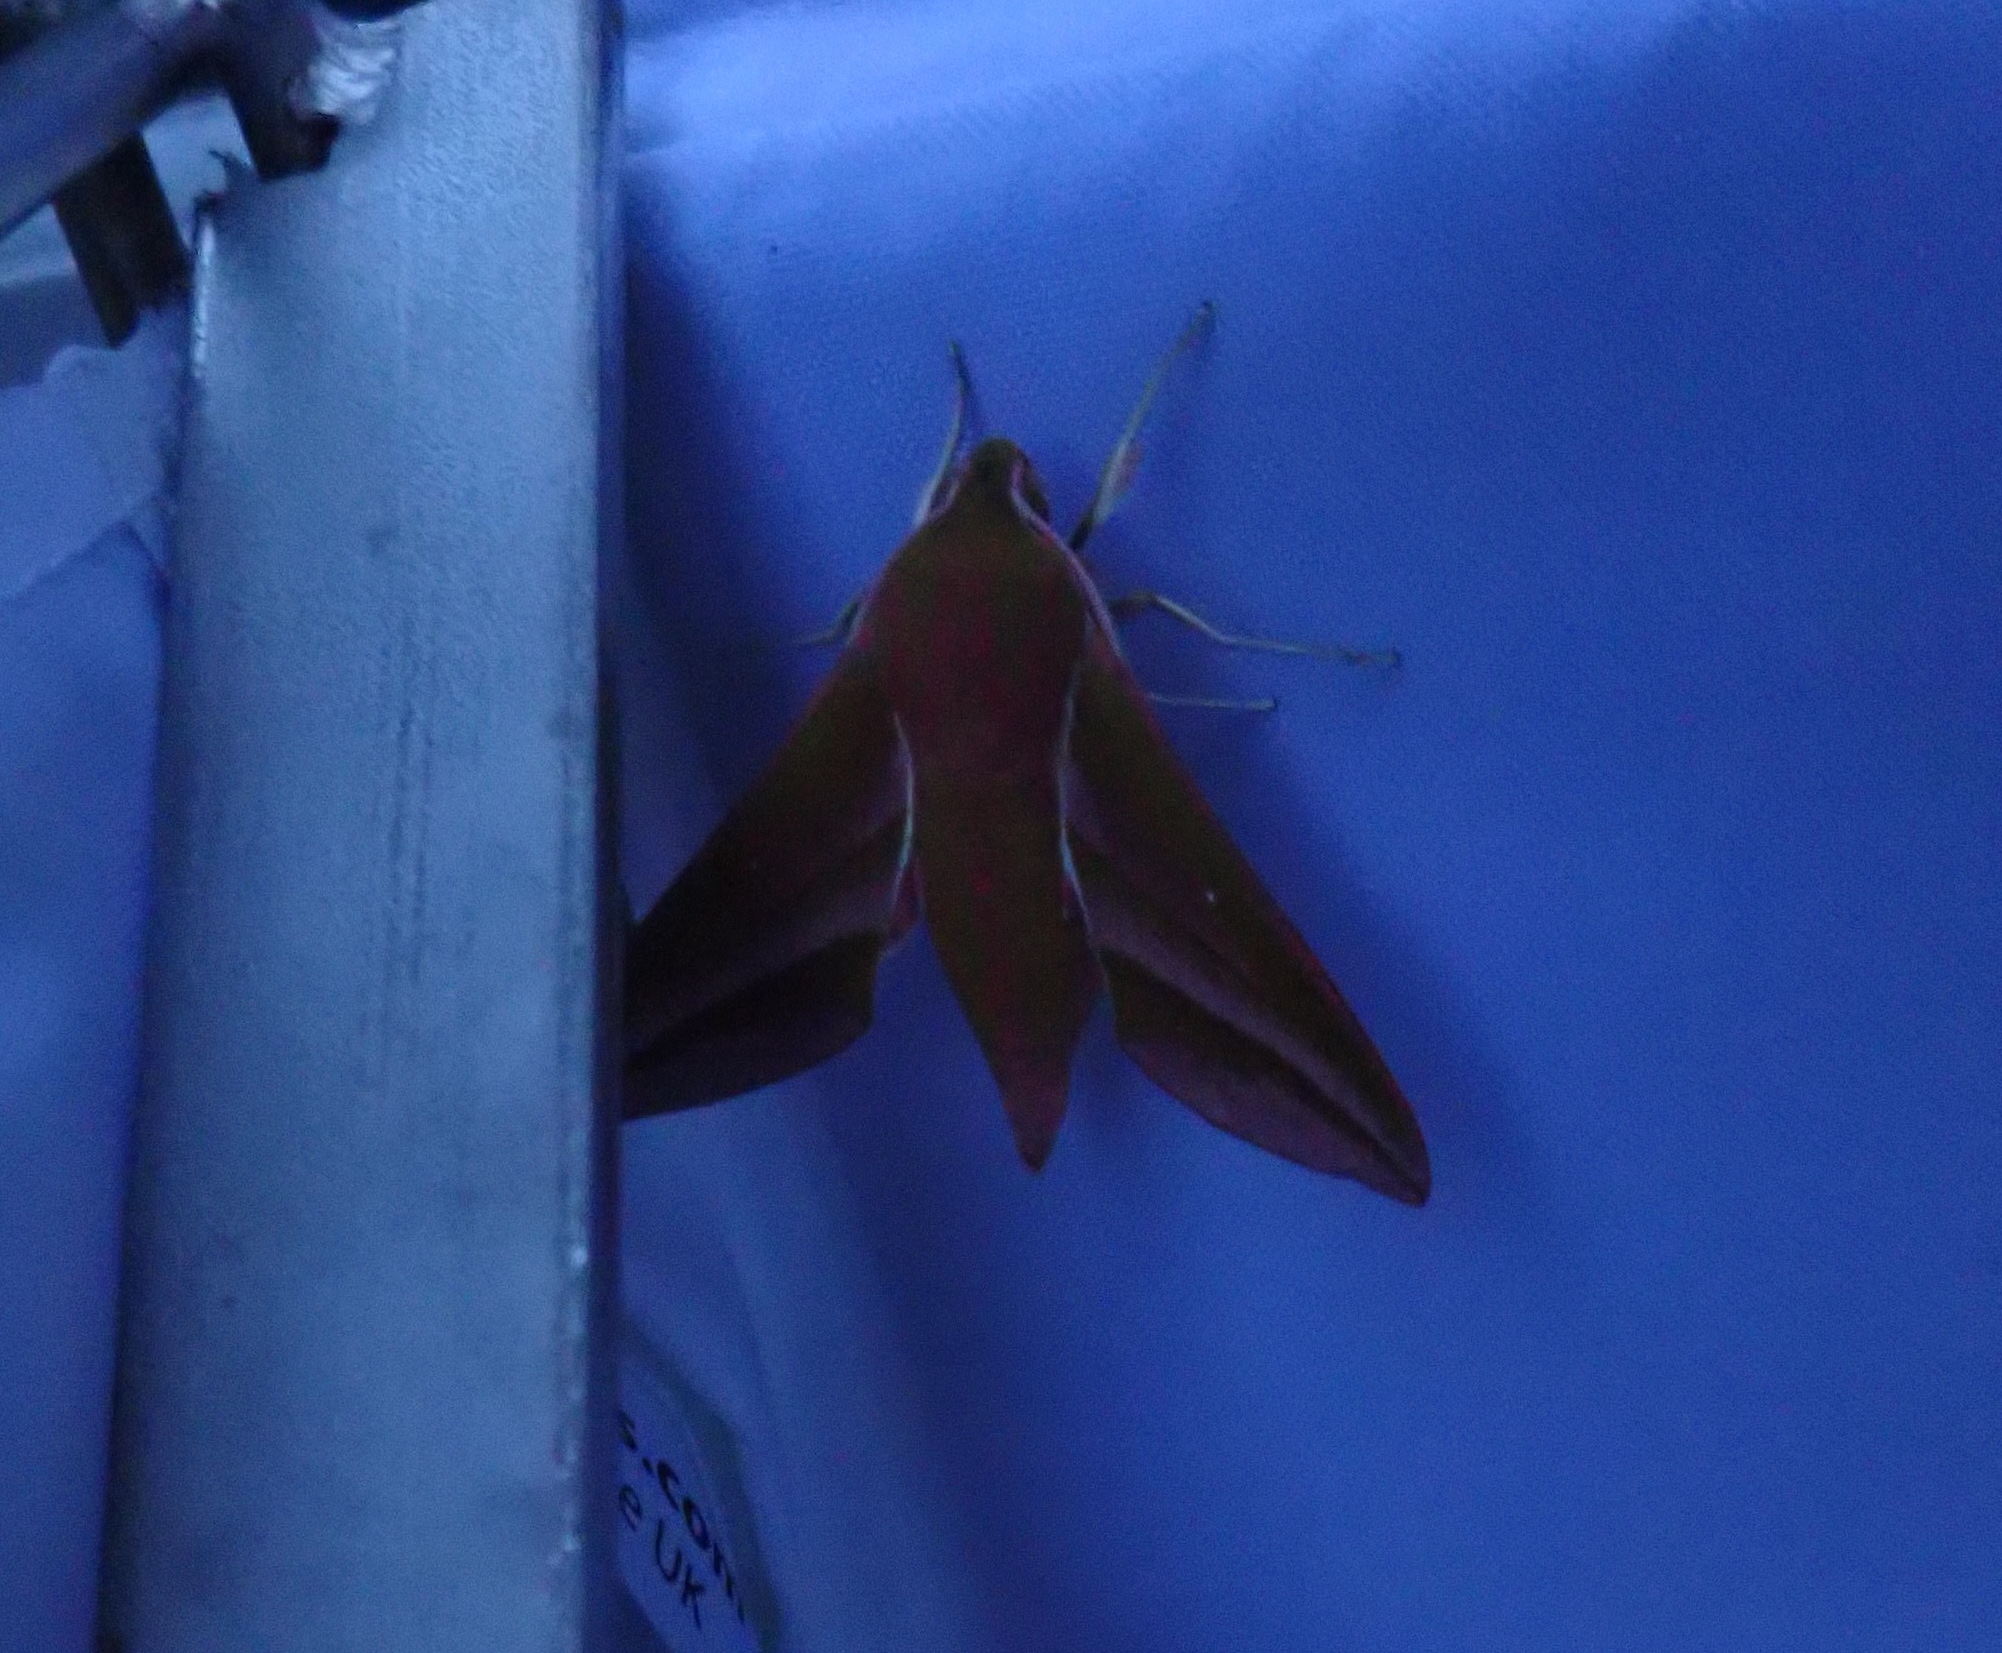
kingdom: Animalia
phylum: Arthropoda
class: Insecta
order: Lepidoptera
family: Sphingidae
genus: Deilephila
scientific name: Deilephila elpenor
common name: Elephant hawk-moth
